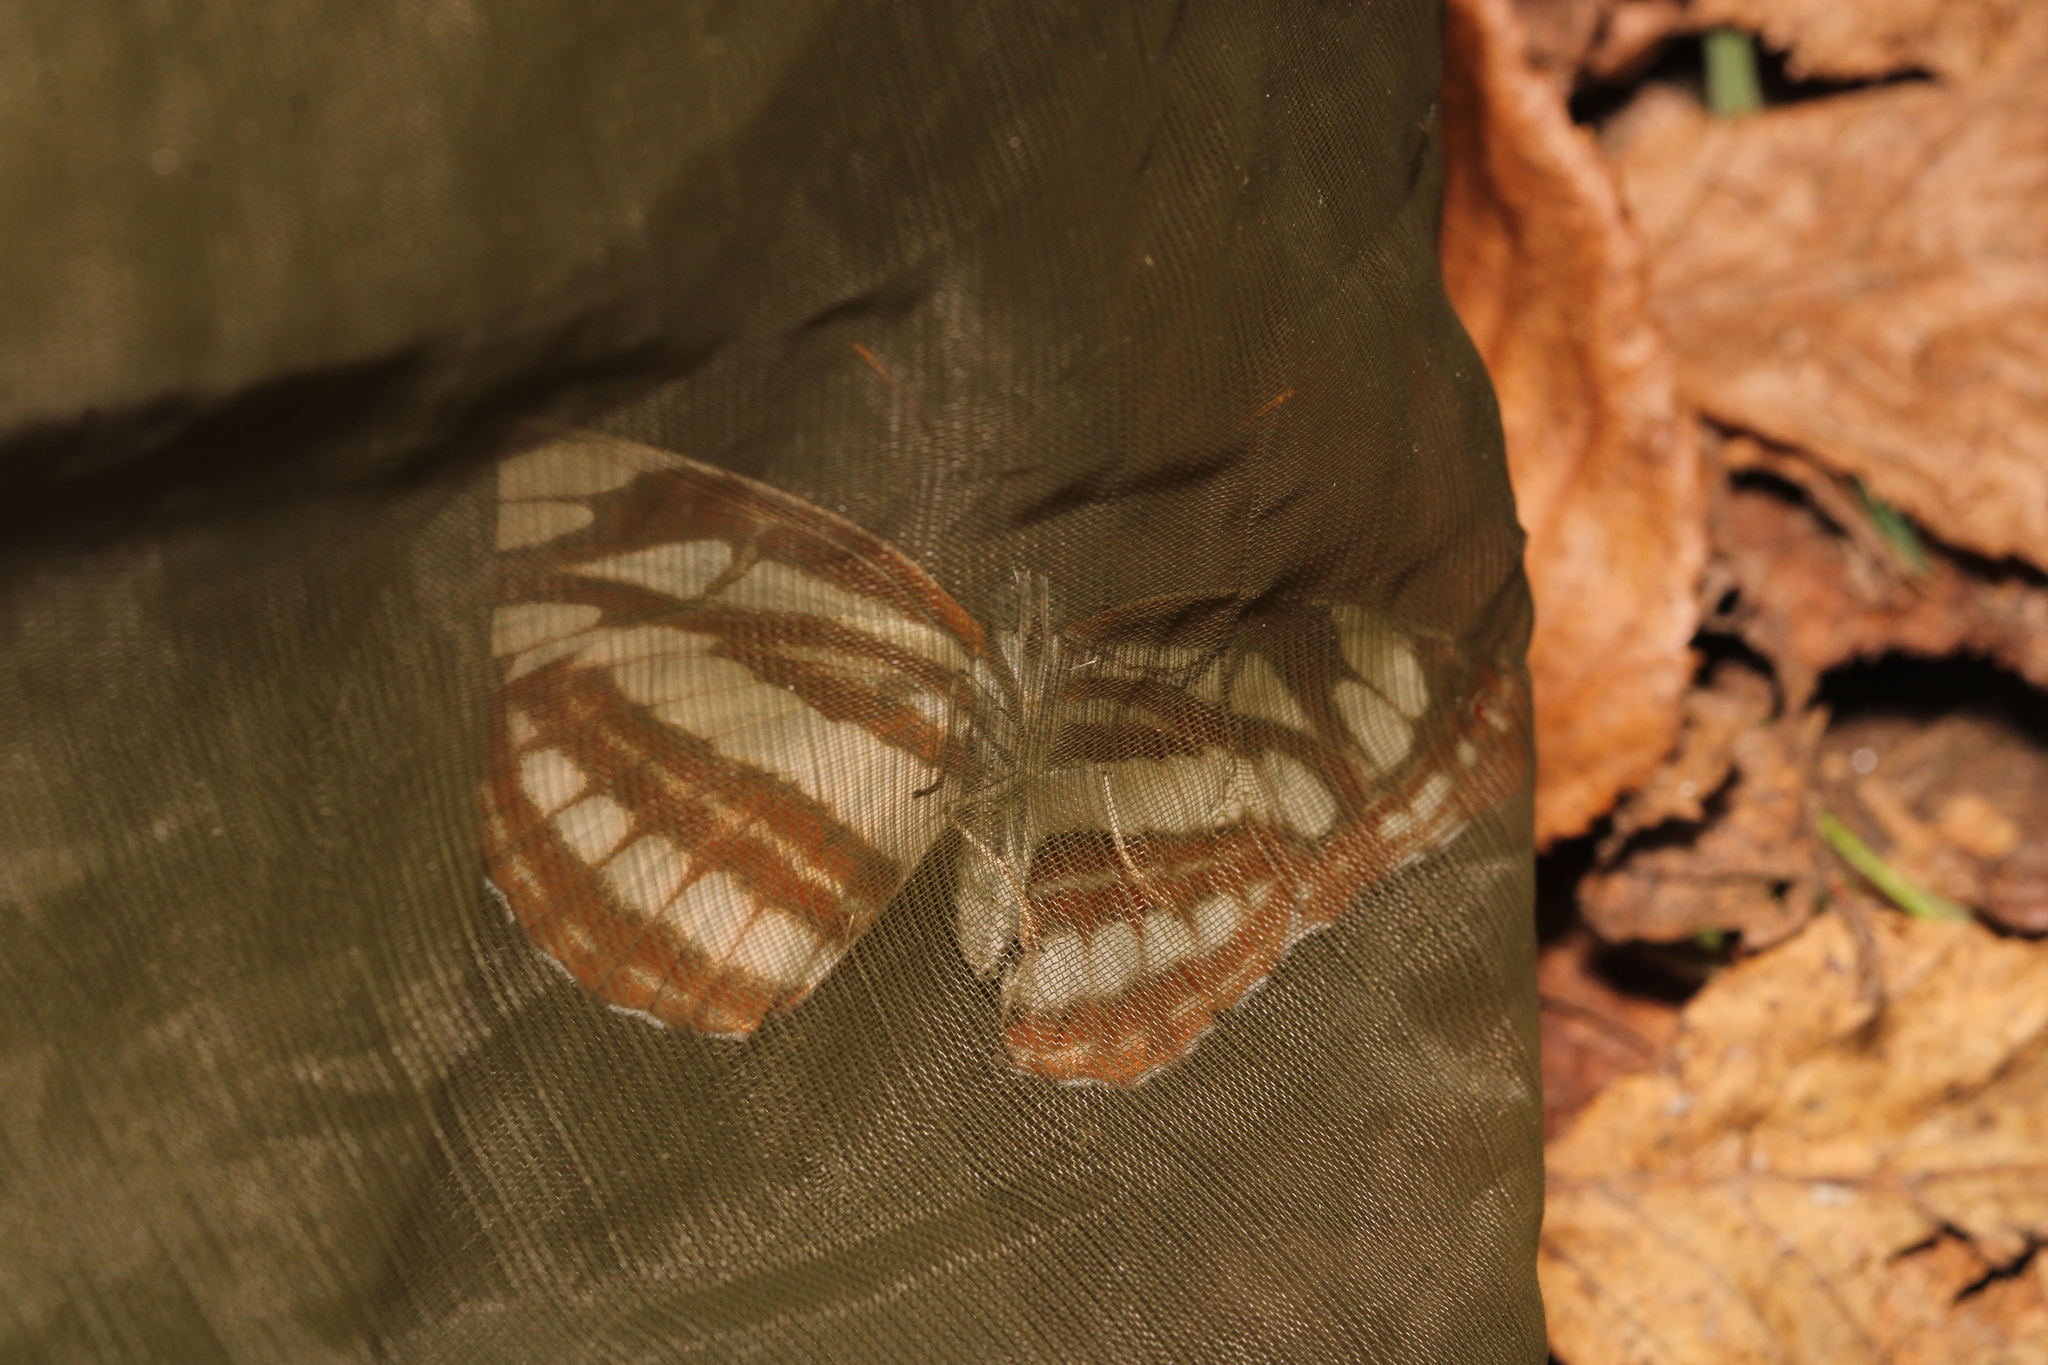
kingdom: Animalia
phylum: Arthropoda
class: Insecta
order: Lepidoptera
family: Nymphalidae
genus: Neptis
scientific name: Neptis sappho
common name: Common glider
